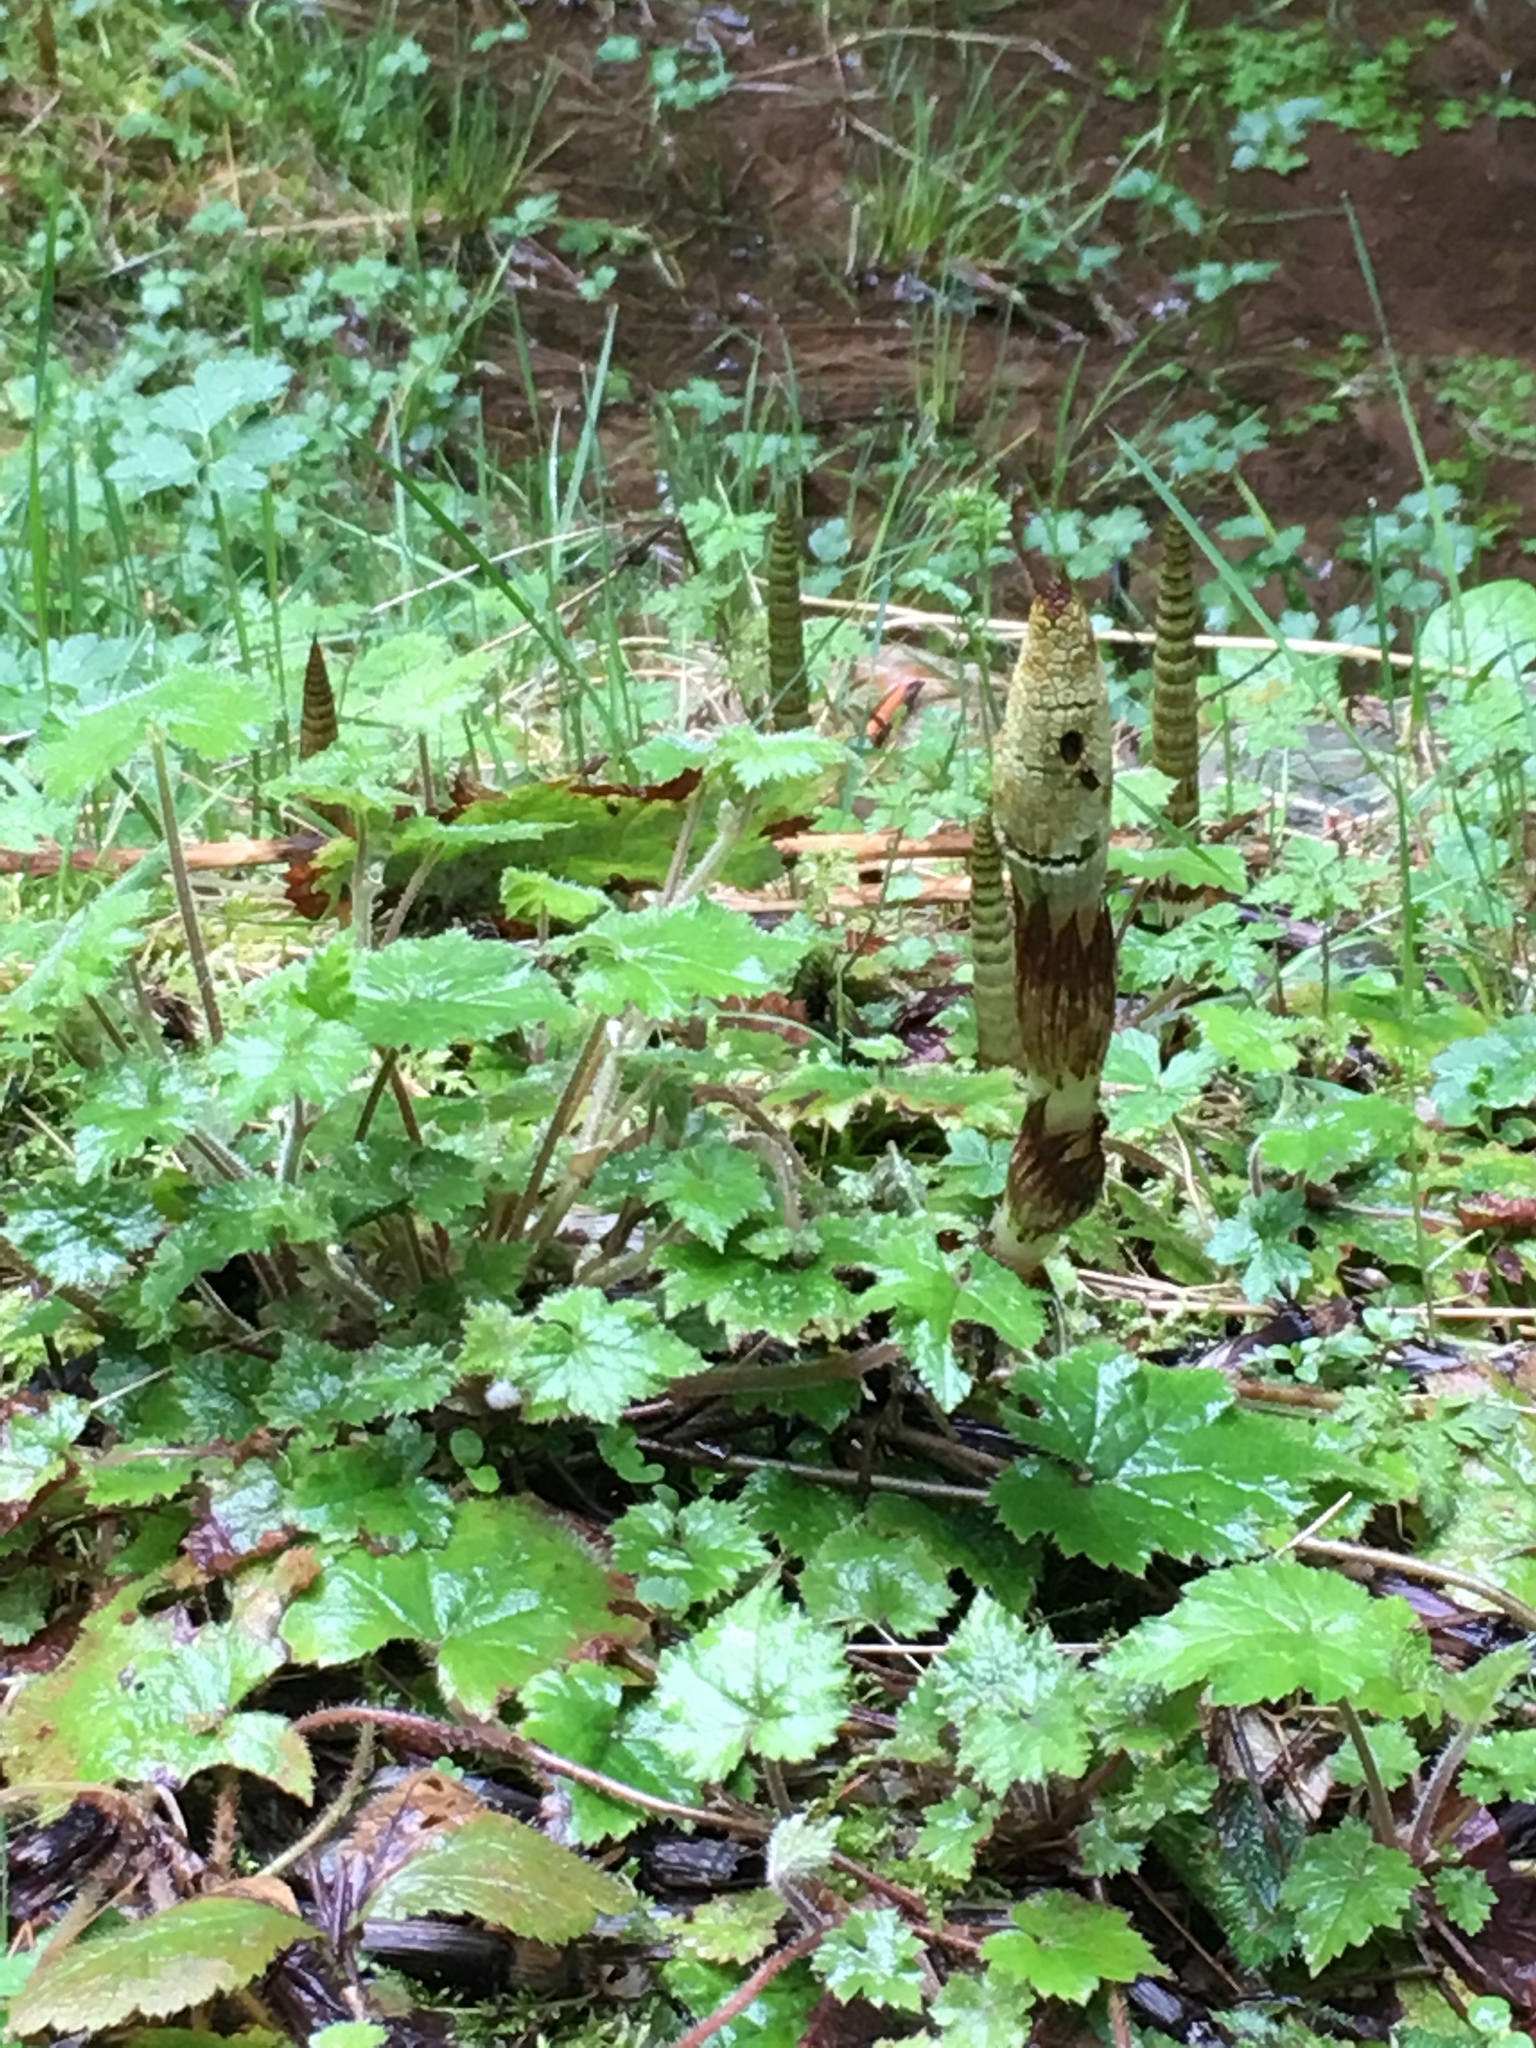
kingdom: Plantae
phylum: Tracheophyta
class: Polypodiopsida
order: Equisetales
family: Equisetaceae
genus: Equisetum
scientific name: Equisetum braunii
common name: Braun's horsetail
